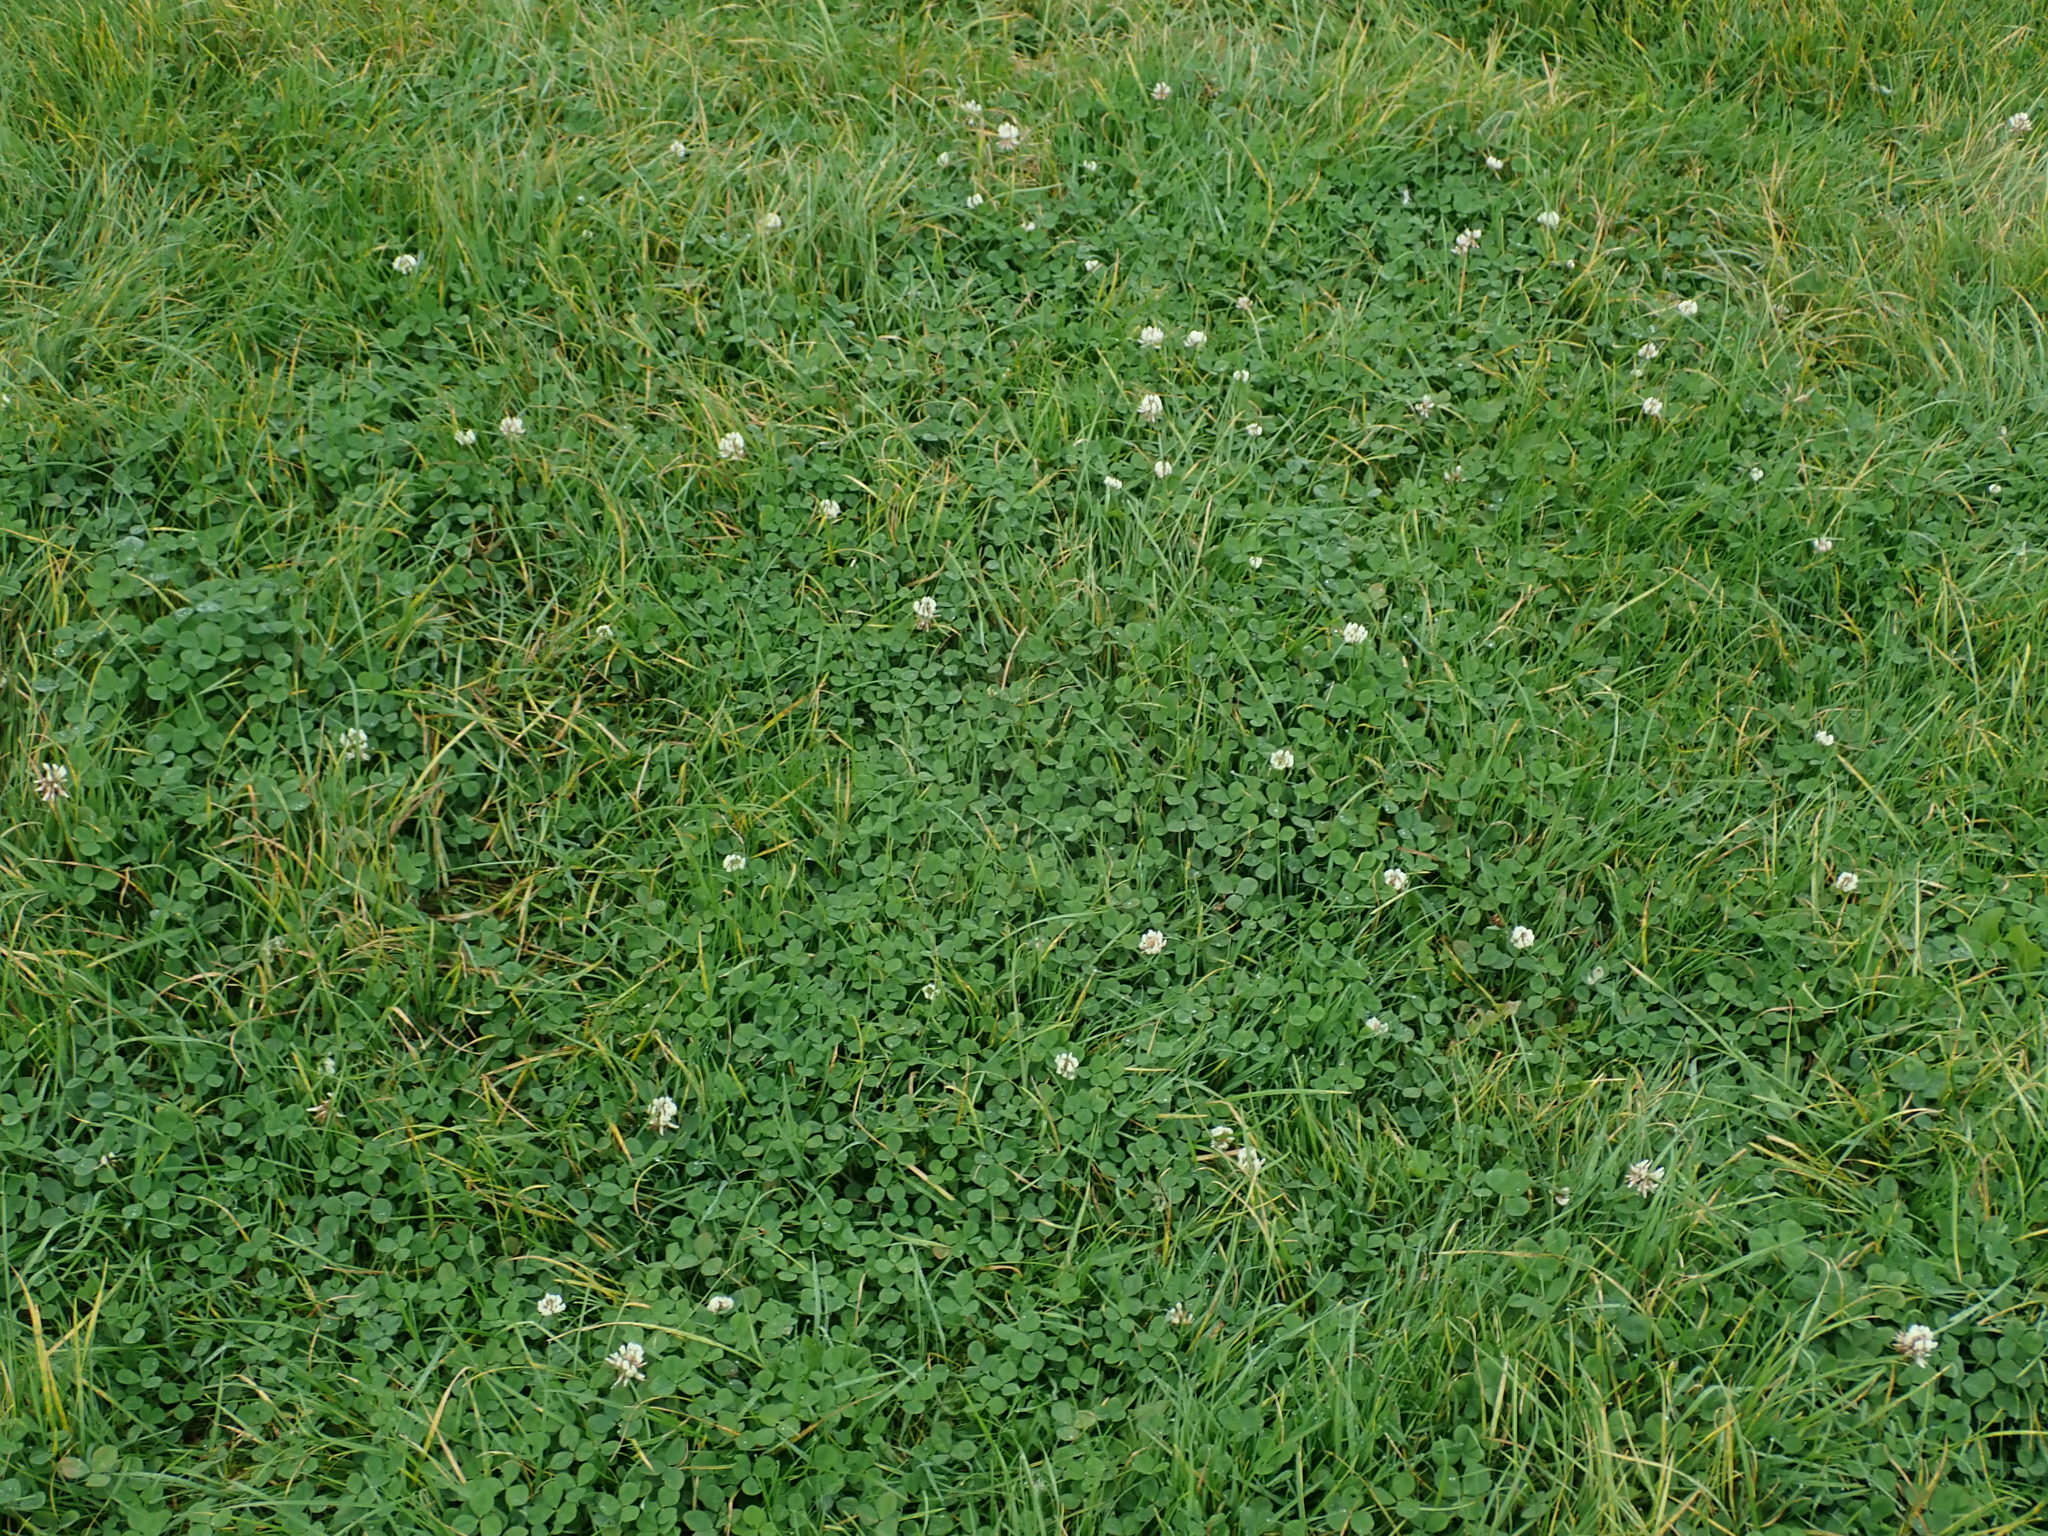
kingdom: Plantae
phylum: Tracheophyta
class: Magnoliopsida
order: Fabales
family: Fabaceae
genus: Trifolium
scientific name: Trifolium repens
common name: White clover
